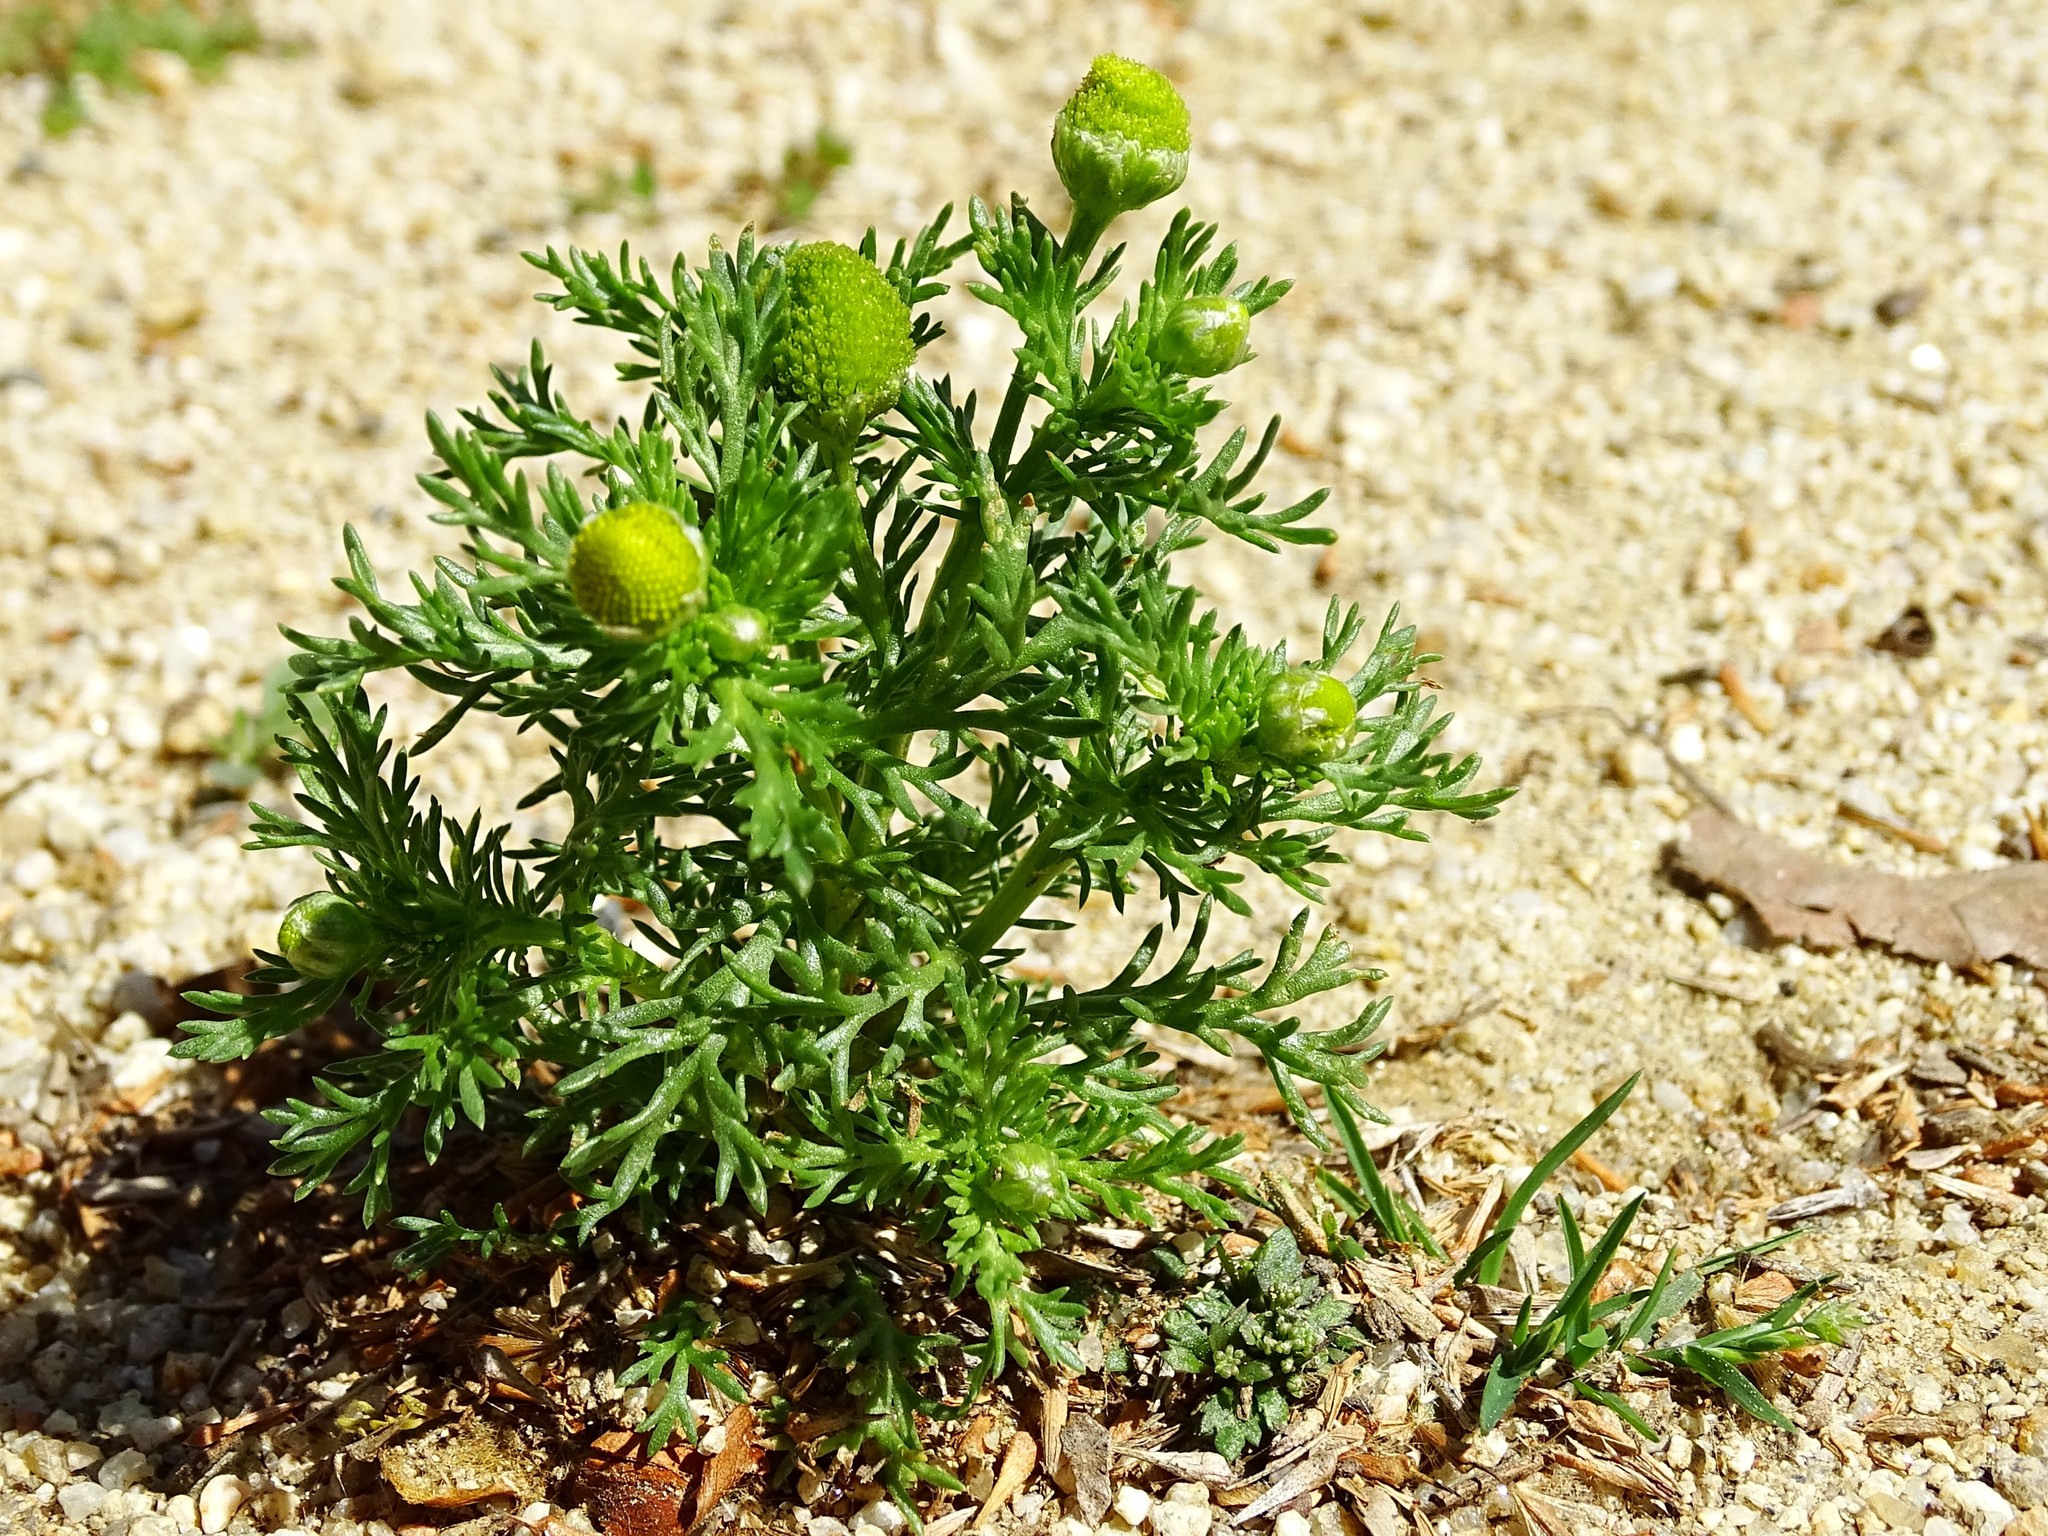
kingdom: Plantae
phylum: Tracheophyta
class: Magnoliopsida
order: Asterales
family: Asteraceae
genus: Matricaria
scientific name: Matricaria discoidea
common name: Disc mayweed
